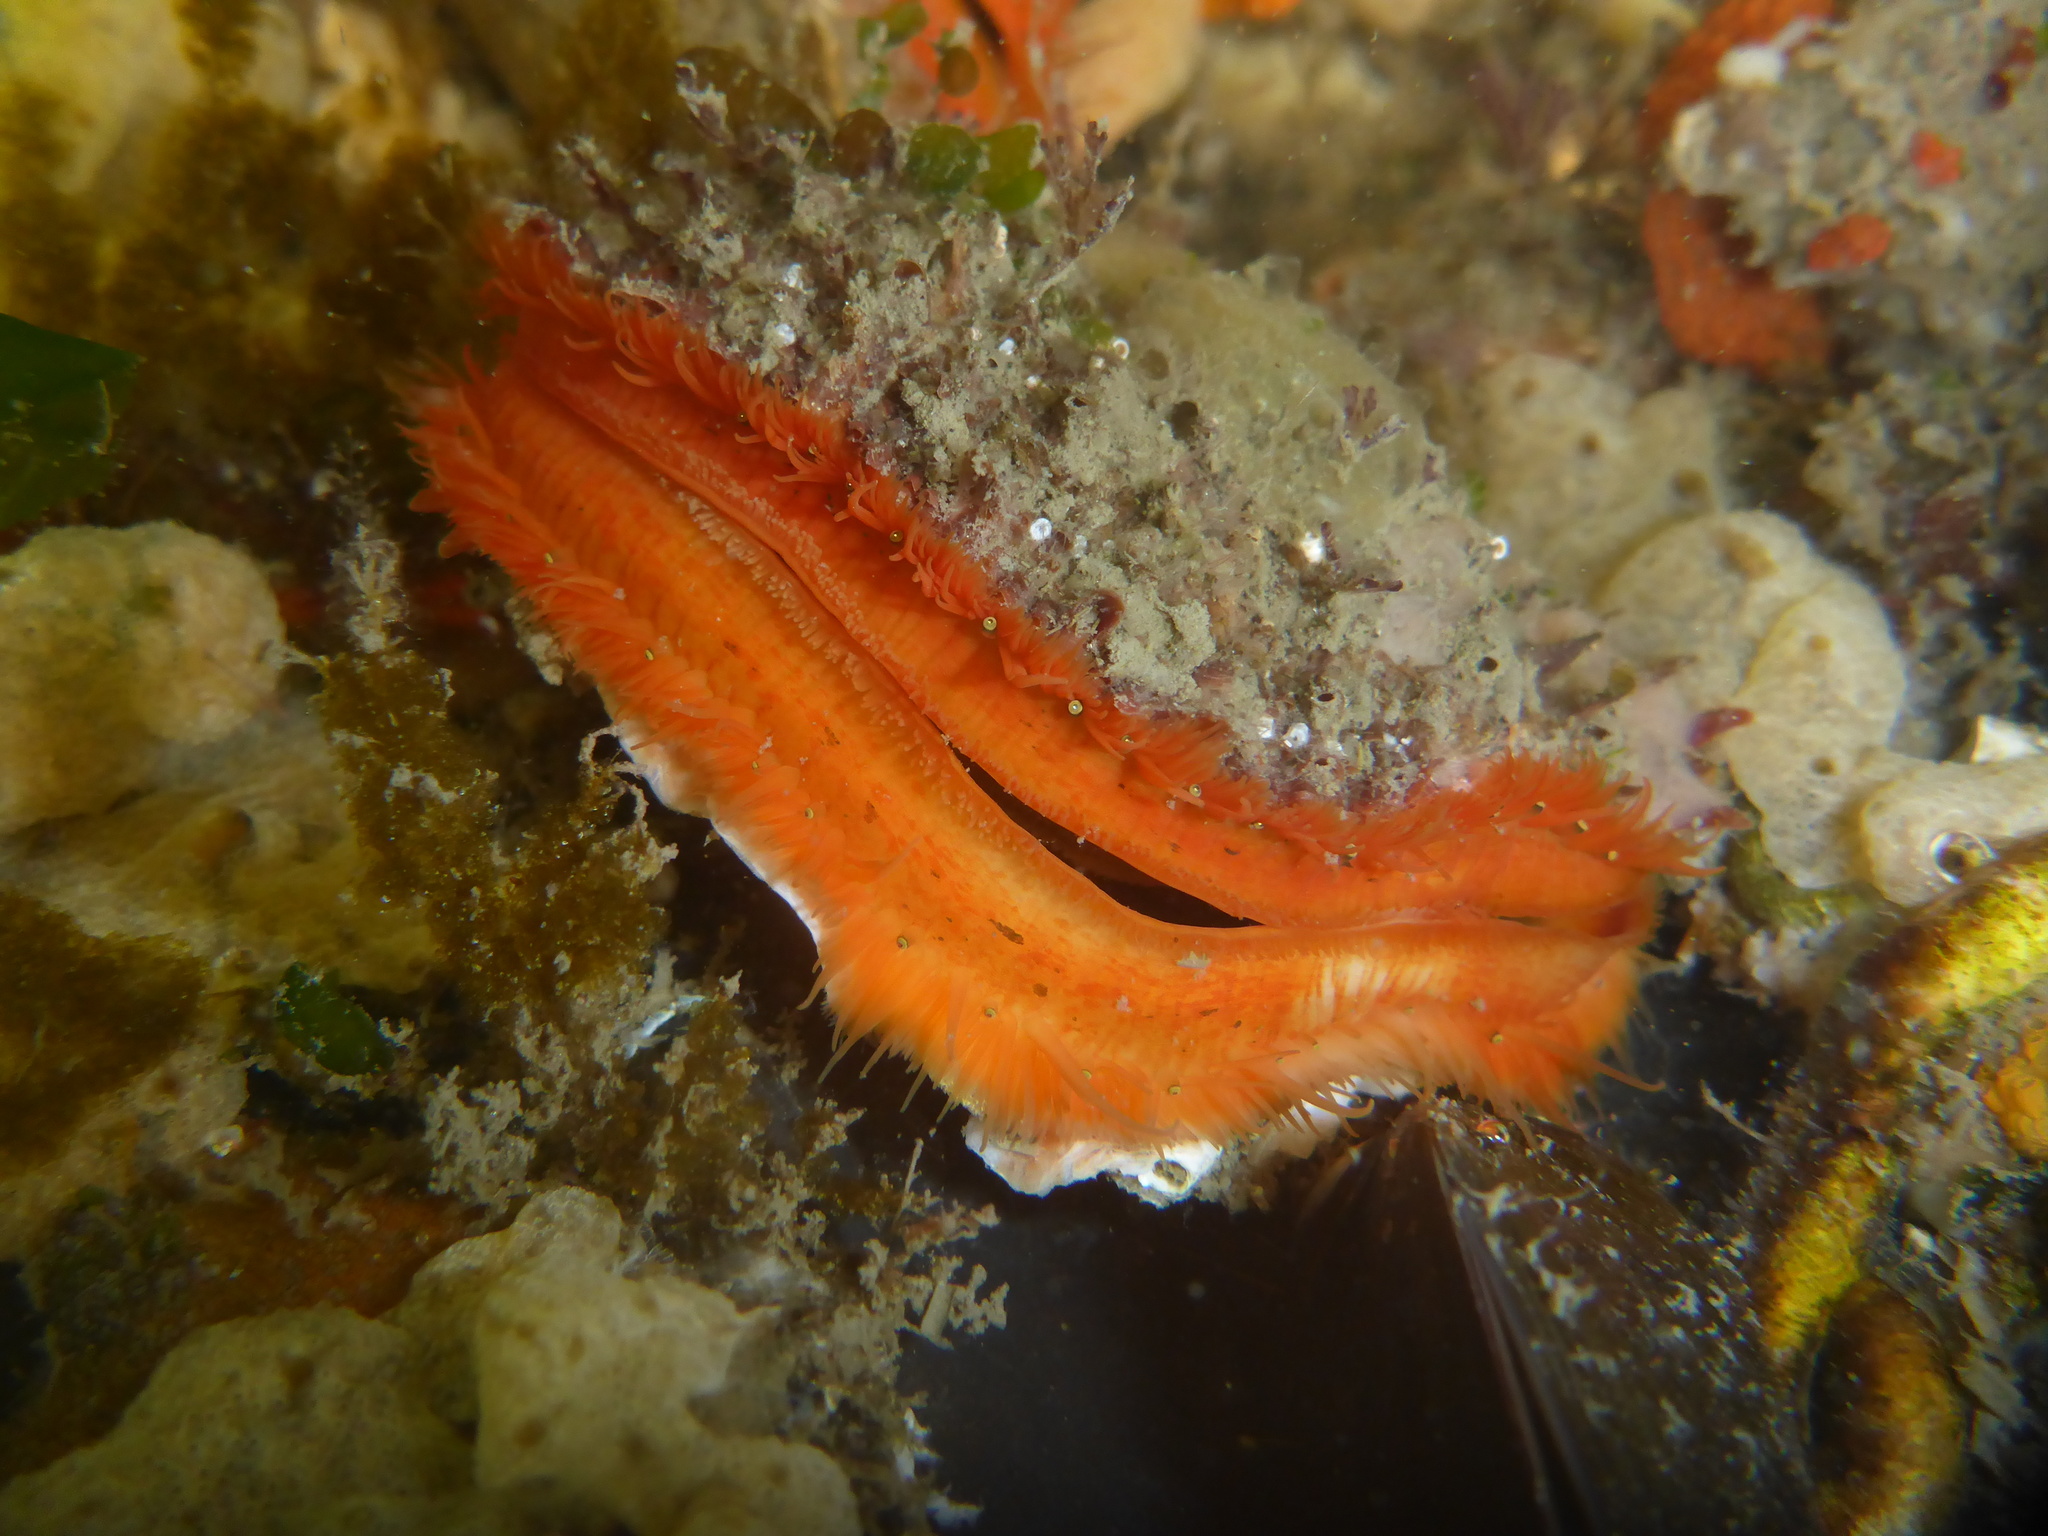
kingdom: Animalia
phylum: Mollusca
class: Bivalvia
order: Pectinida
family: Pectinidae
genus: Crassadoma
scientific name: Crassadoma gigantea
